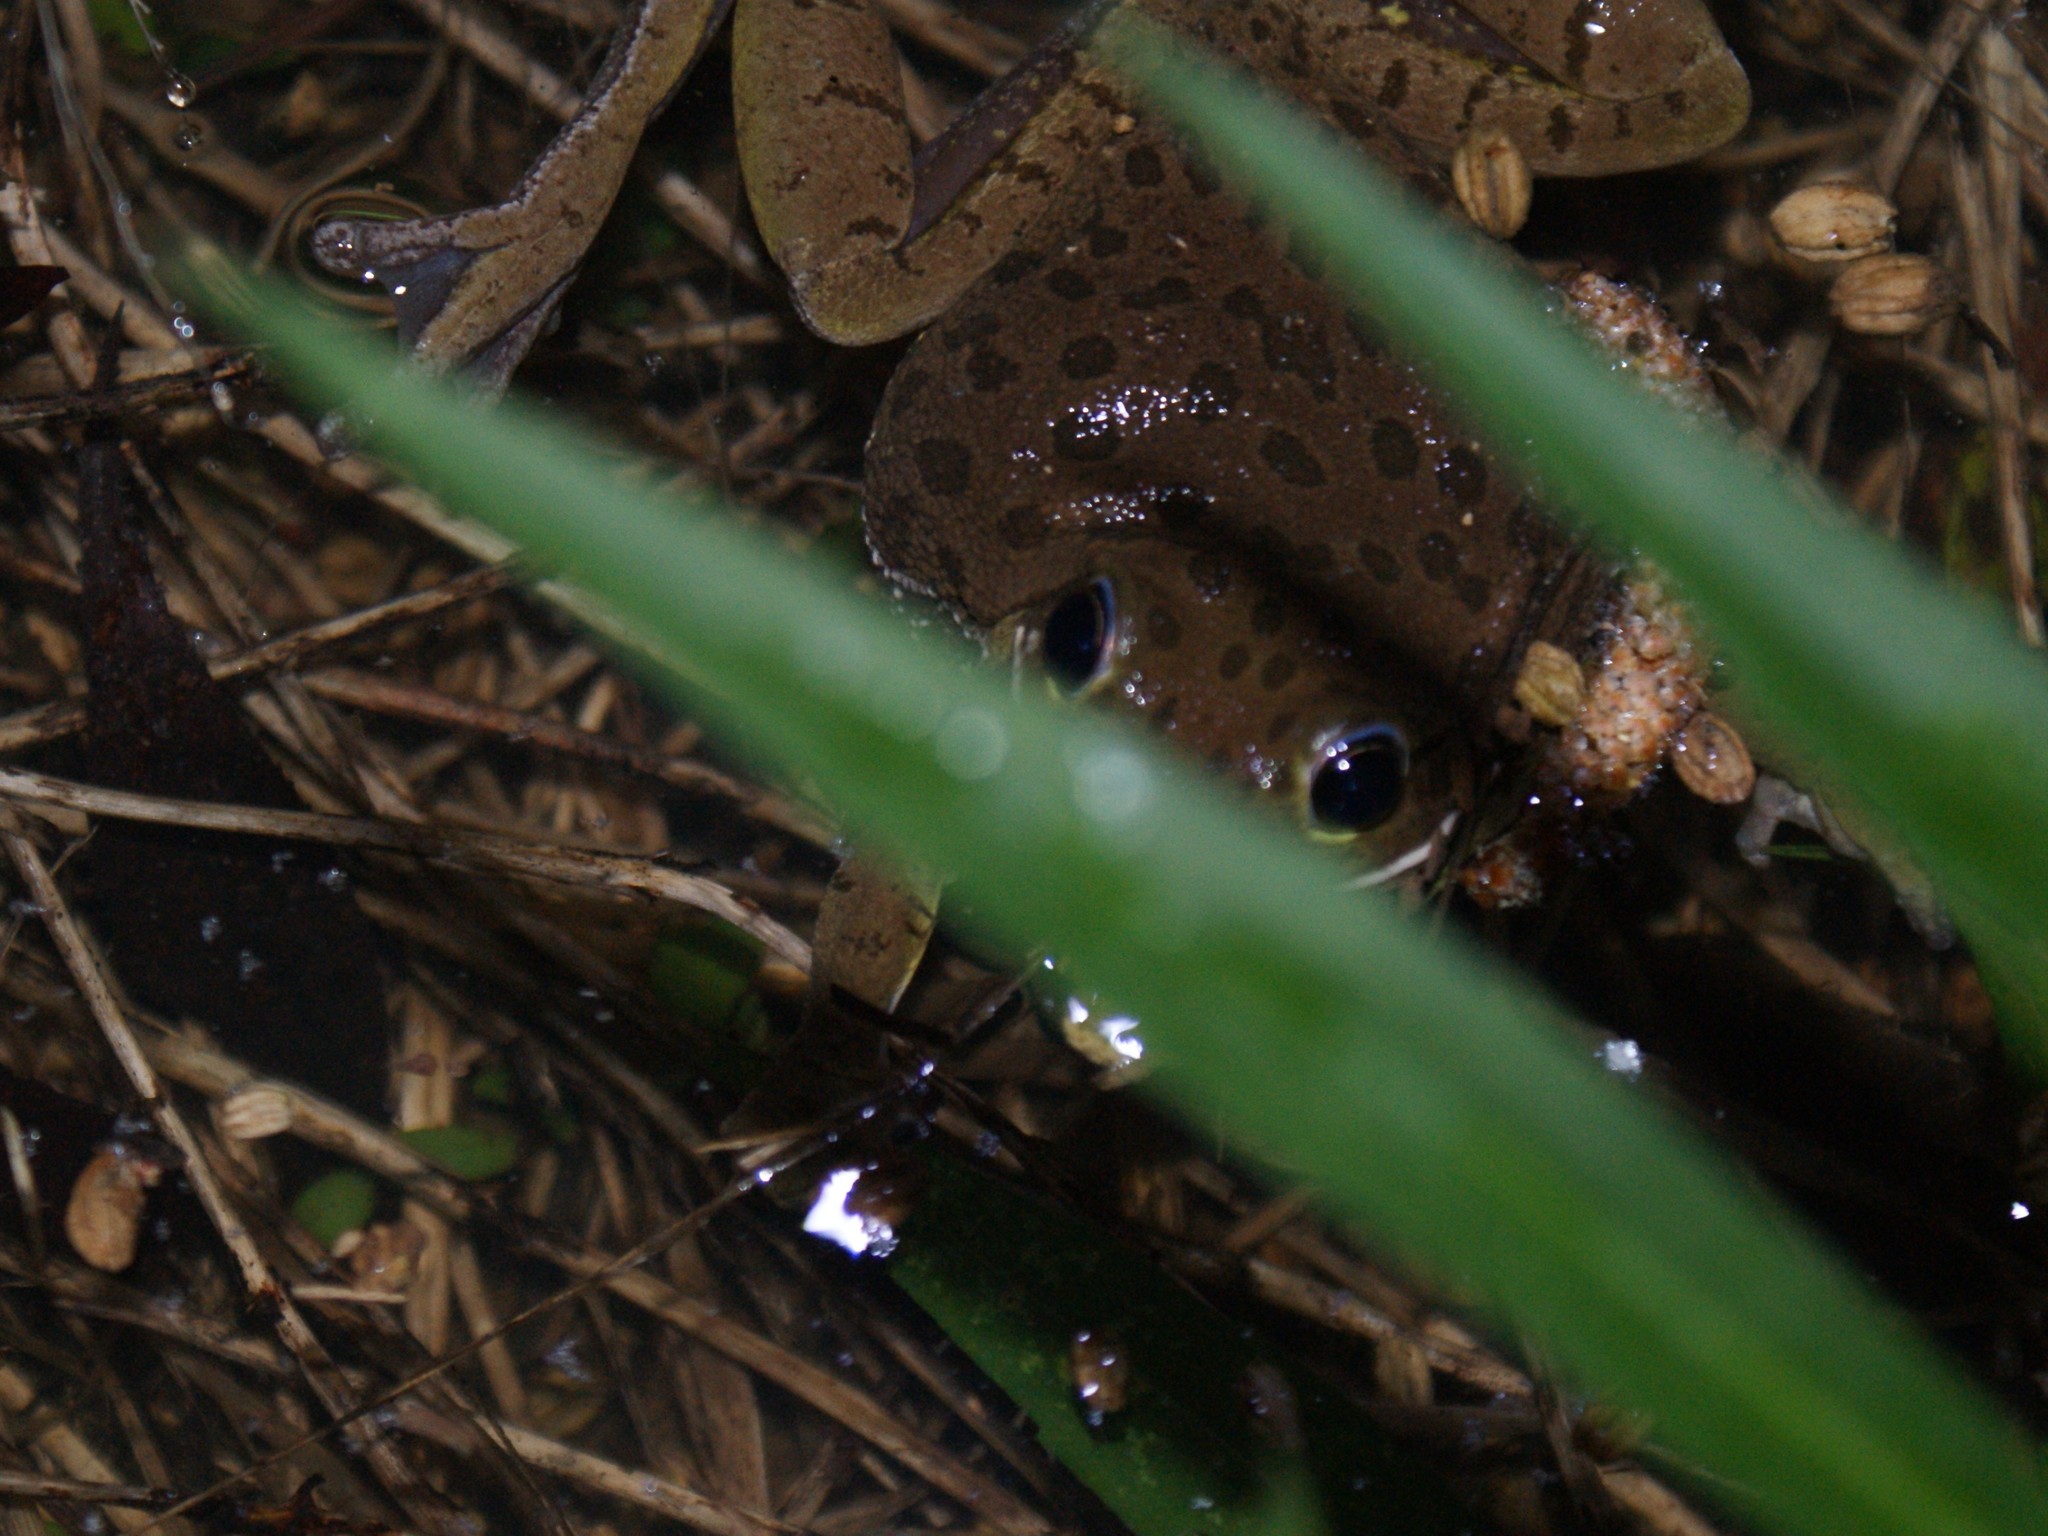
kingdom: Animalia
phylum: Chordata
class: Amphibia
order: Anura
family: Hylidae
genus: Dryophytes
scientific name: Dryophytes gratiosus
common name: Barking treefrog
